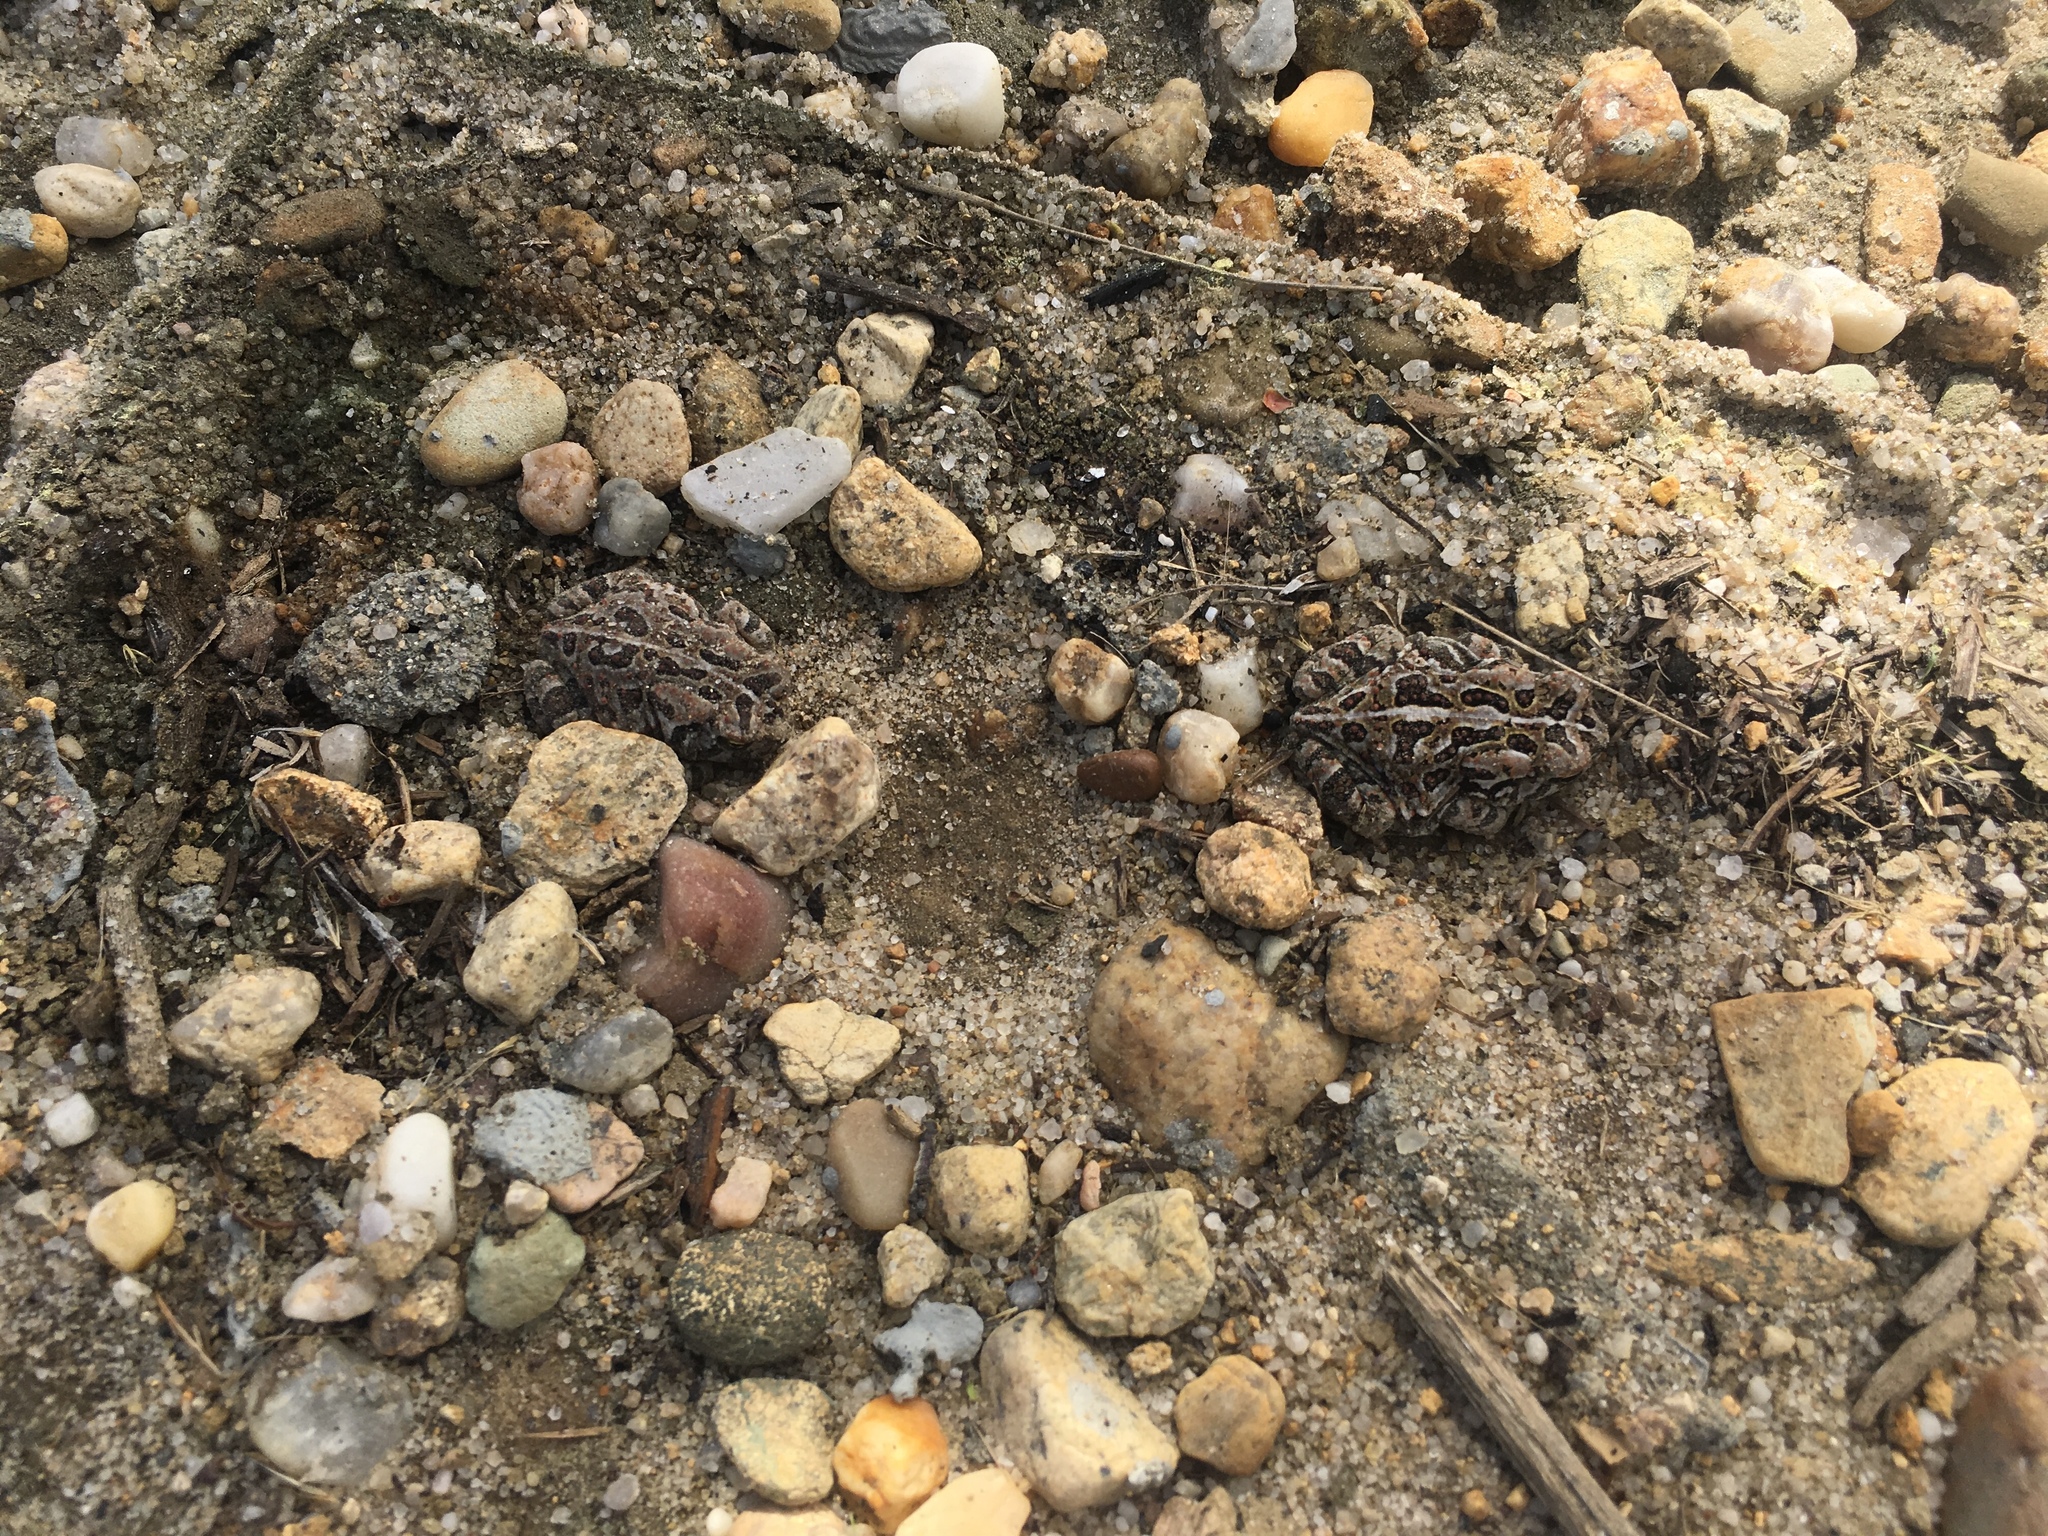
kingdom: Animalia
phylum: Chordata
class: Amphibia
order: Anura
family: Bufonidae
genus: Anaxyrus
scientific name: Anaxyrus fowleri
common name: Fowler's toad
